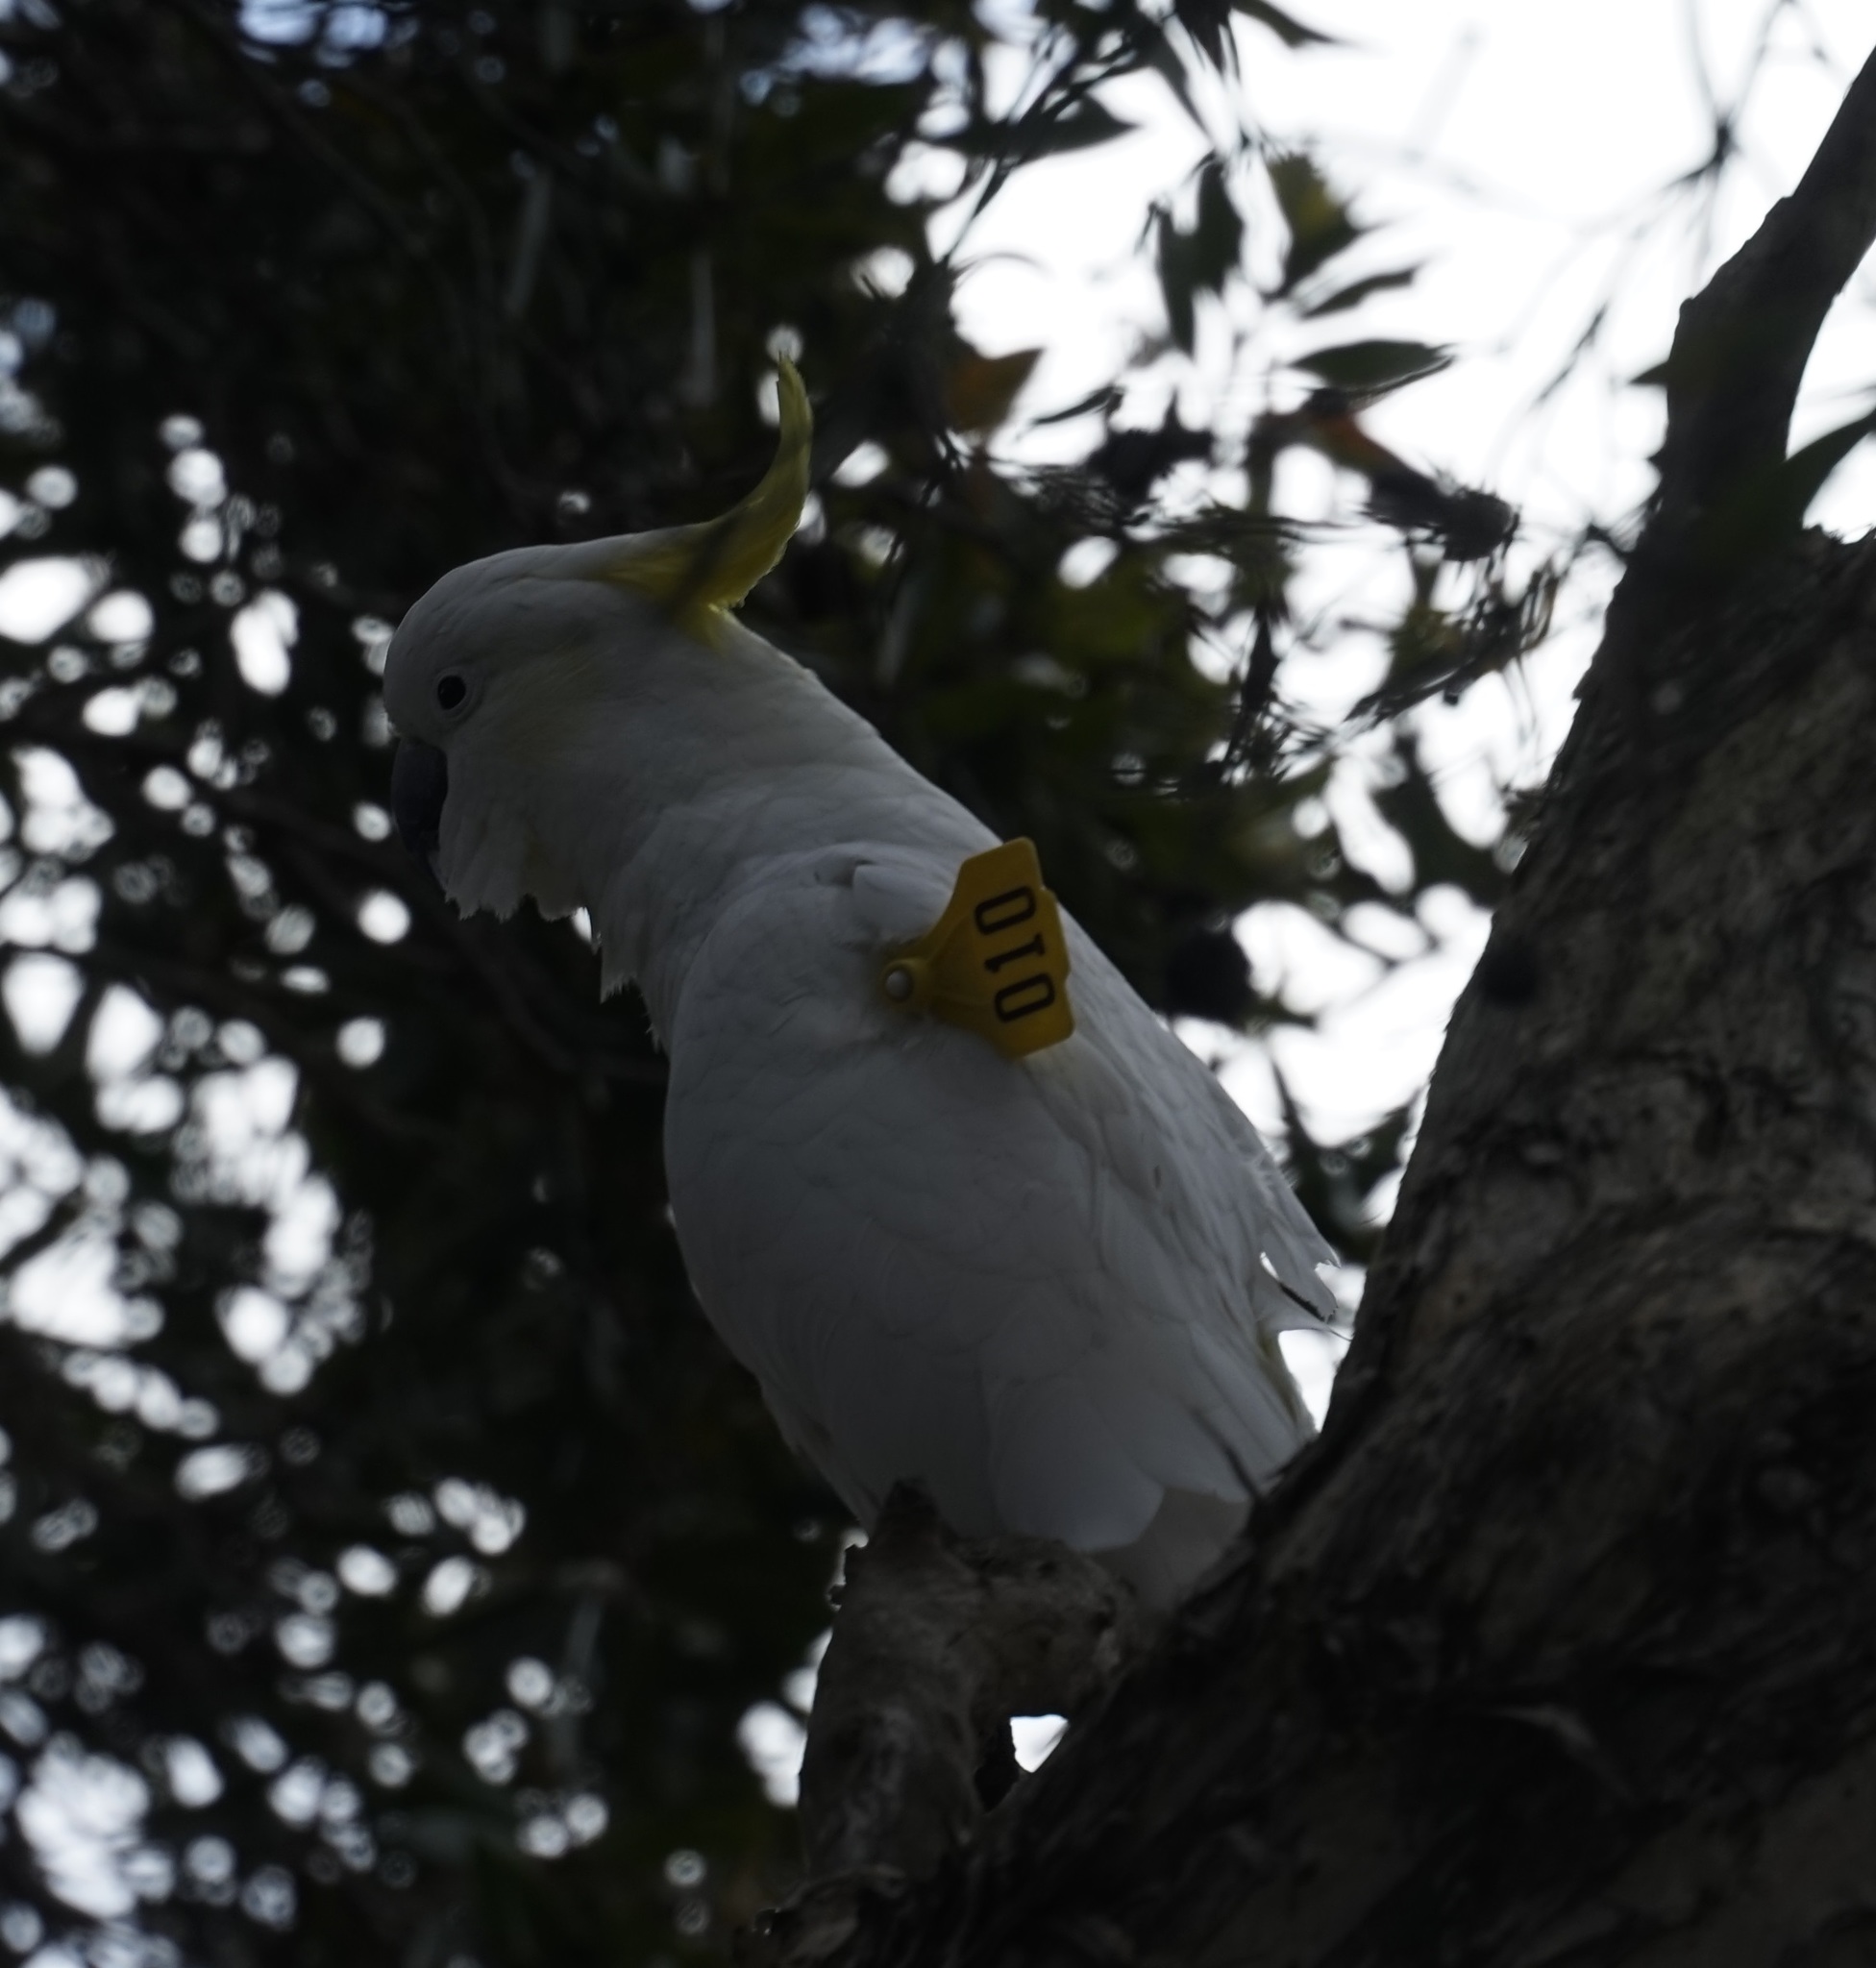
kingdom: Animalia
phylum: Chordata
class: Aves
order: Psittaciformes
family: Psittacidae
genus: Cacatua
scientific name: Cacatua galerita
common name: Sulphur-crested cockatoo
